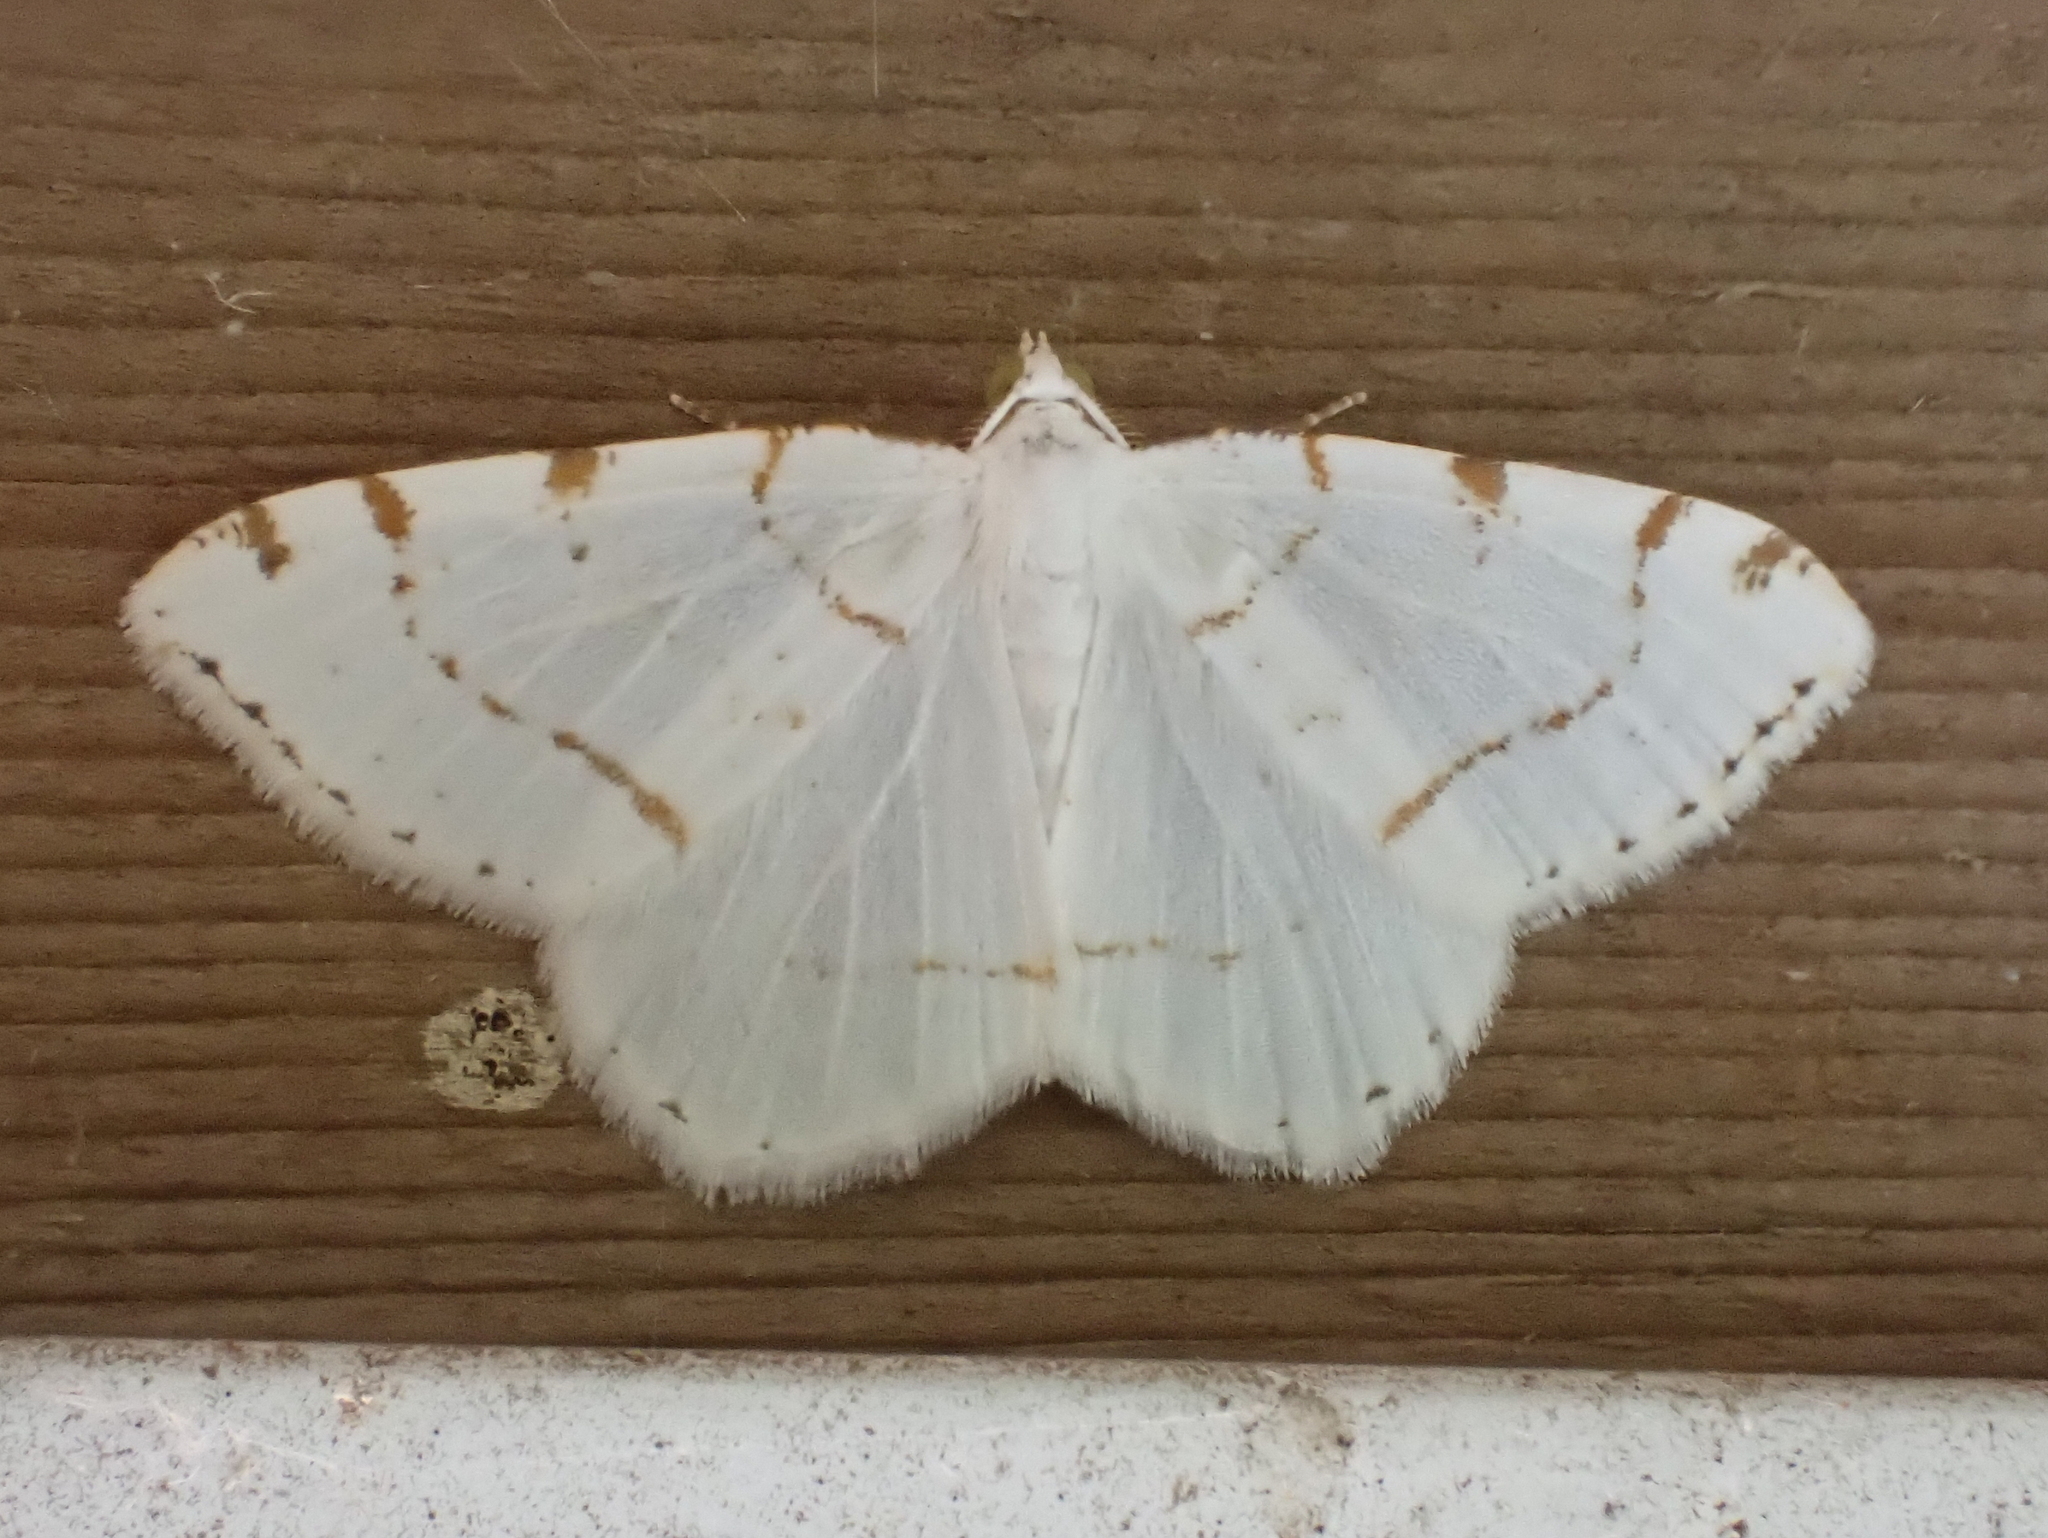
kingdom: Animalia
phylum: Arthropoda
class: Insecta
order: Lepidoptera
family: Geometridae
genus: Macaria
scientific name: Macaria pustularia
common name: Lesser maple spanworm moth
